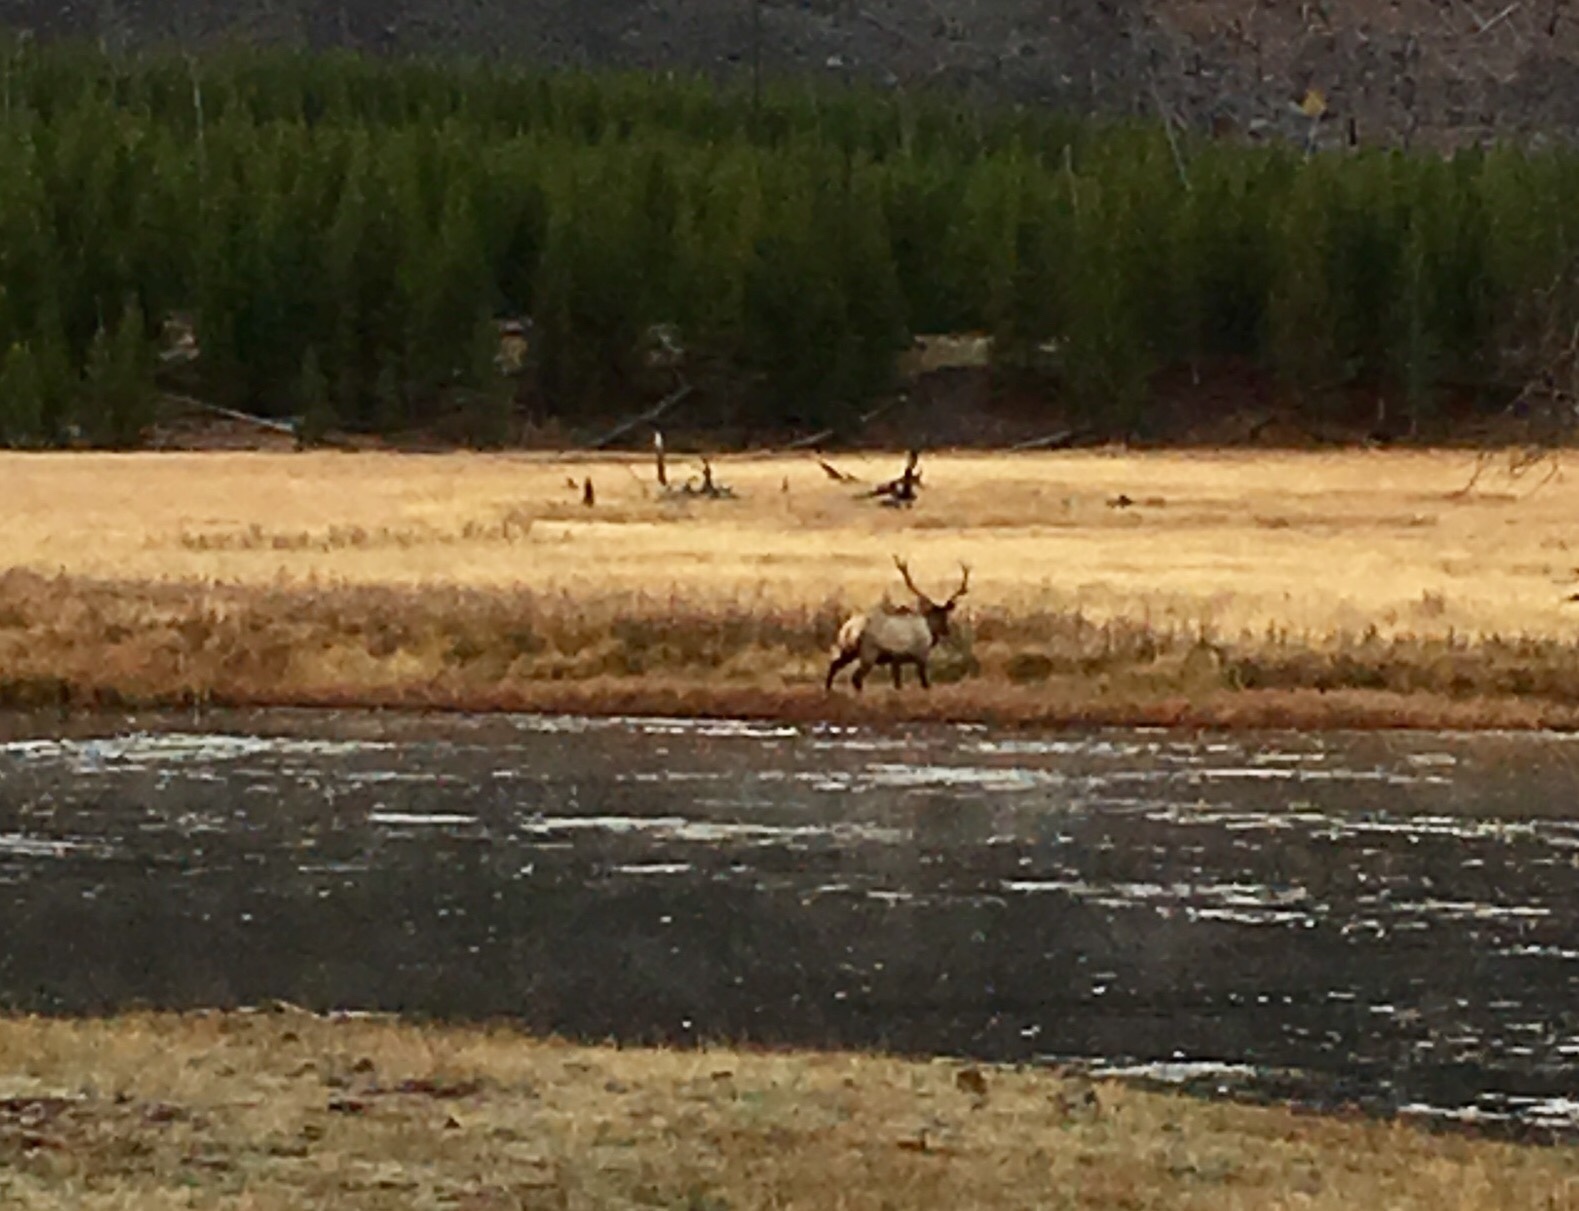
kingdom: Animalia
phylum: Chordata
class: Mammalia
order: Artiodactyla
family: Cervidae
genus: Cervus
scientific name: Cervus elaphus
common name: Red deer
